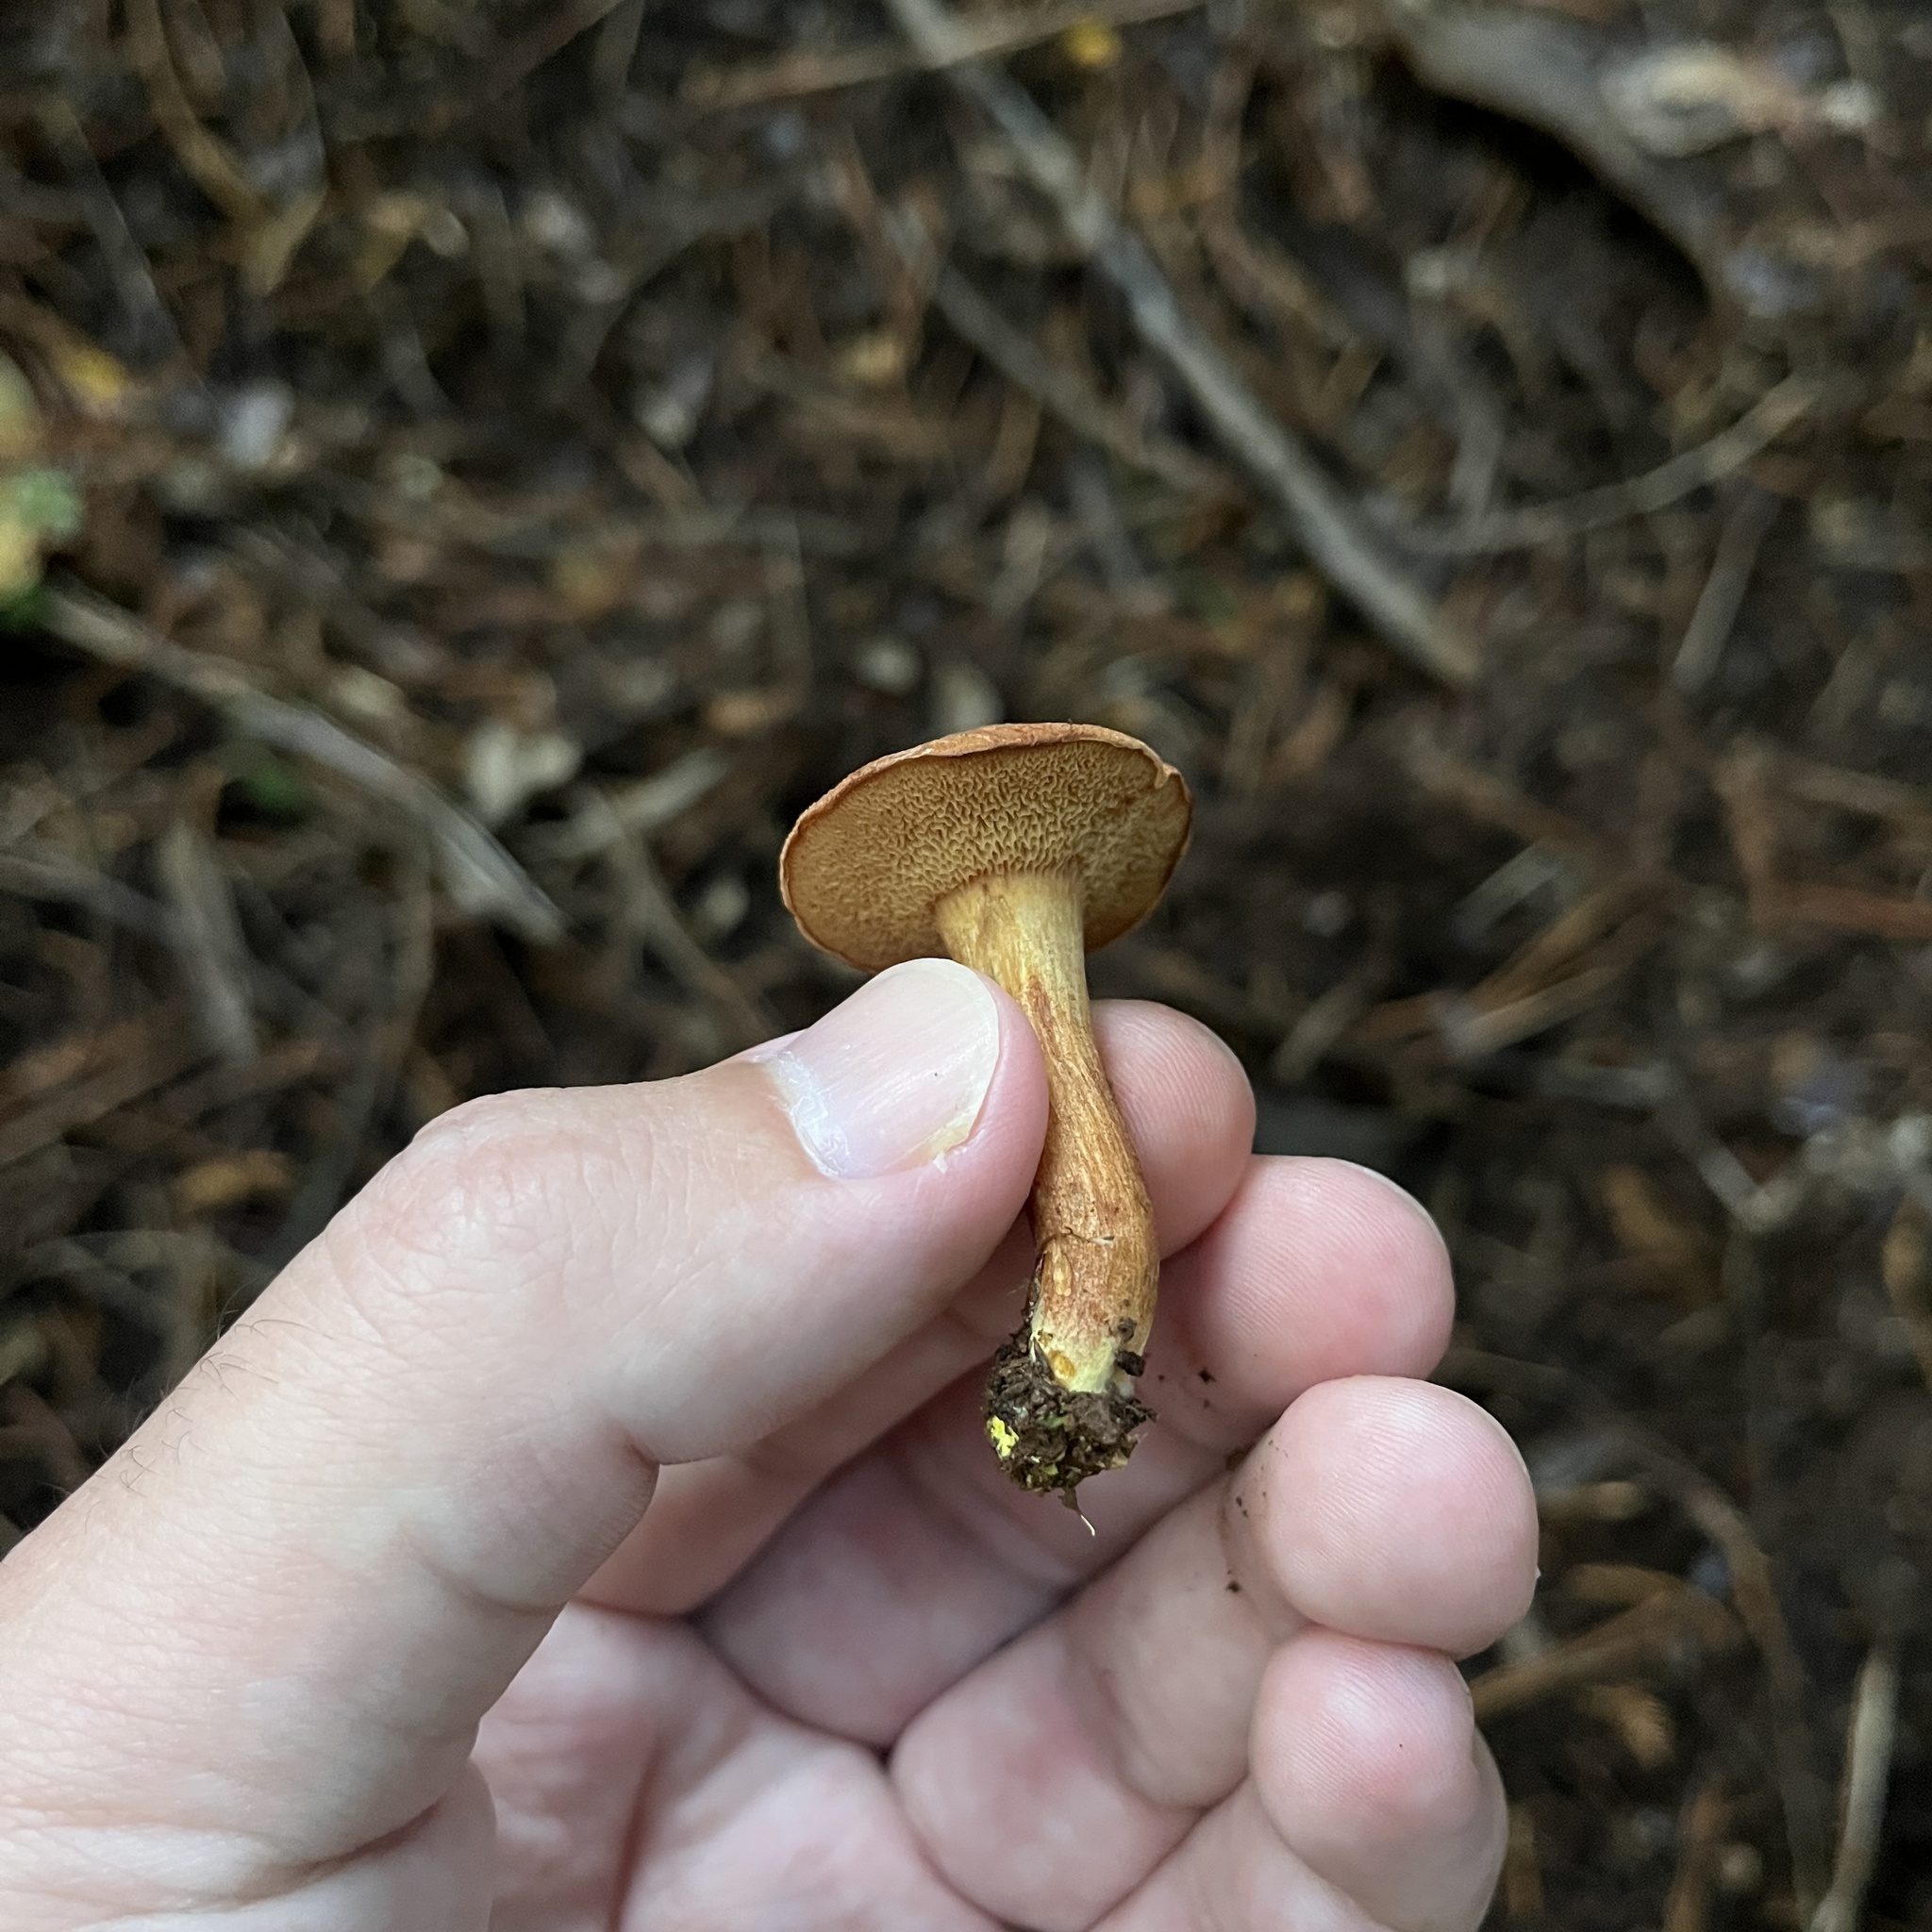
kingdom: Fungi
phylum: Basidiomycota
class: Agaricomycetes
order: Boletales
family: Boletaceae
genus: Chalciporus
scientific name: Chalciporus piperatus
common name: Peppery bolete
